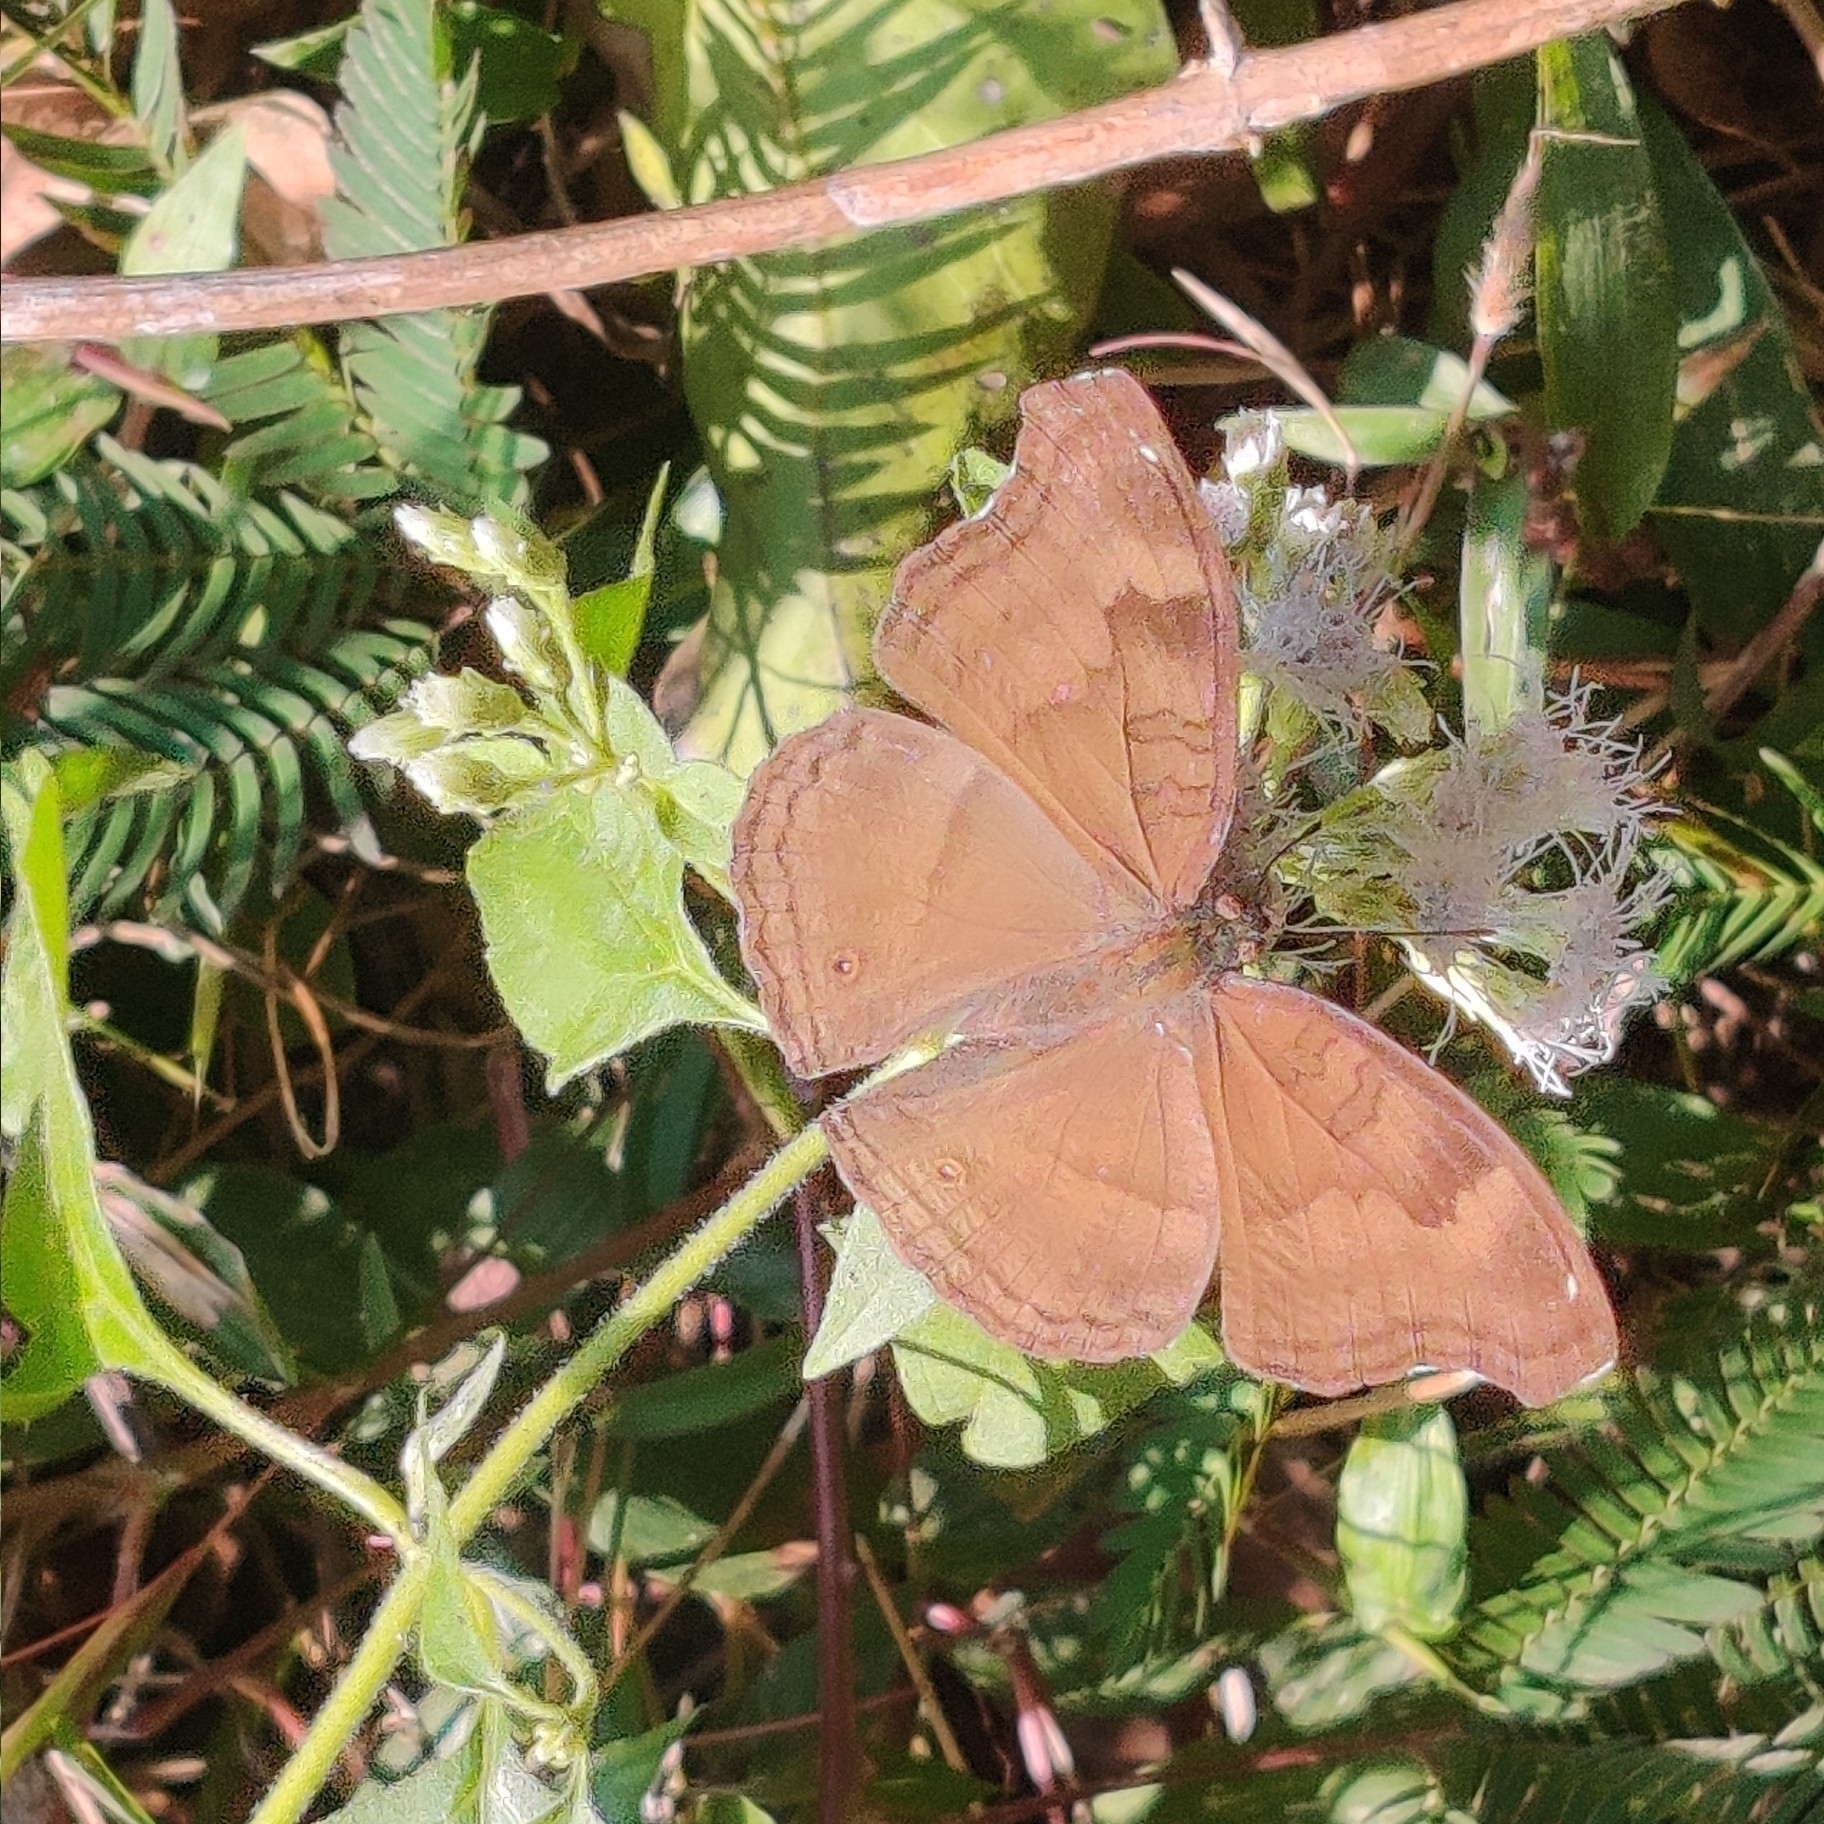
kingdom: Animalia
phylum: Arthropoda
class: Insecta
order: Lepidoptera
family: Nymphalidae
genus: Junonia
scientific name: Junonia iphita
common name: Chocolate pansy
